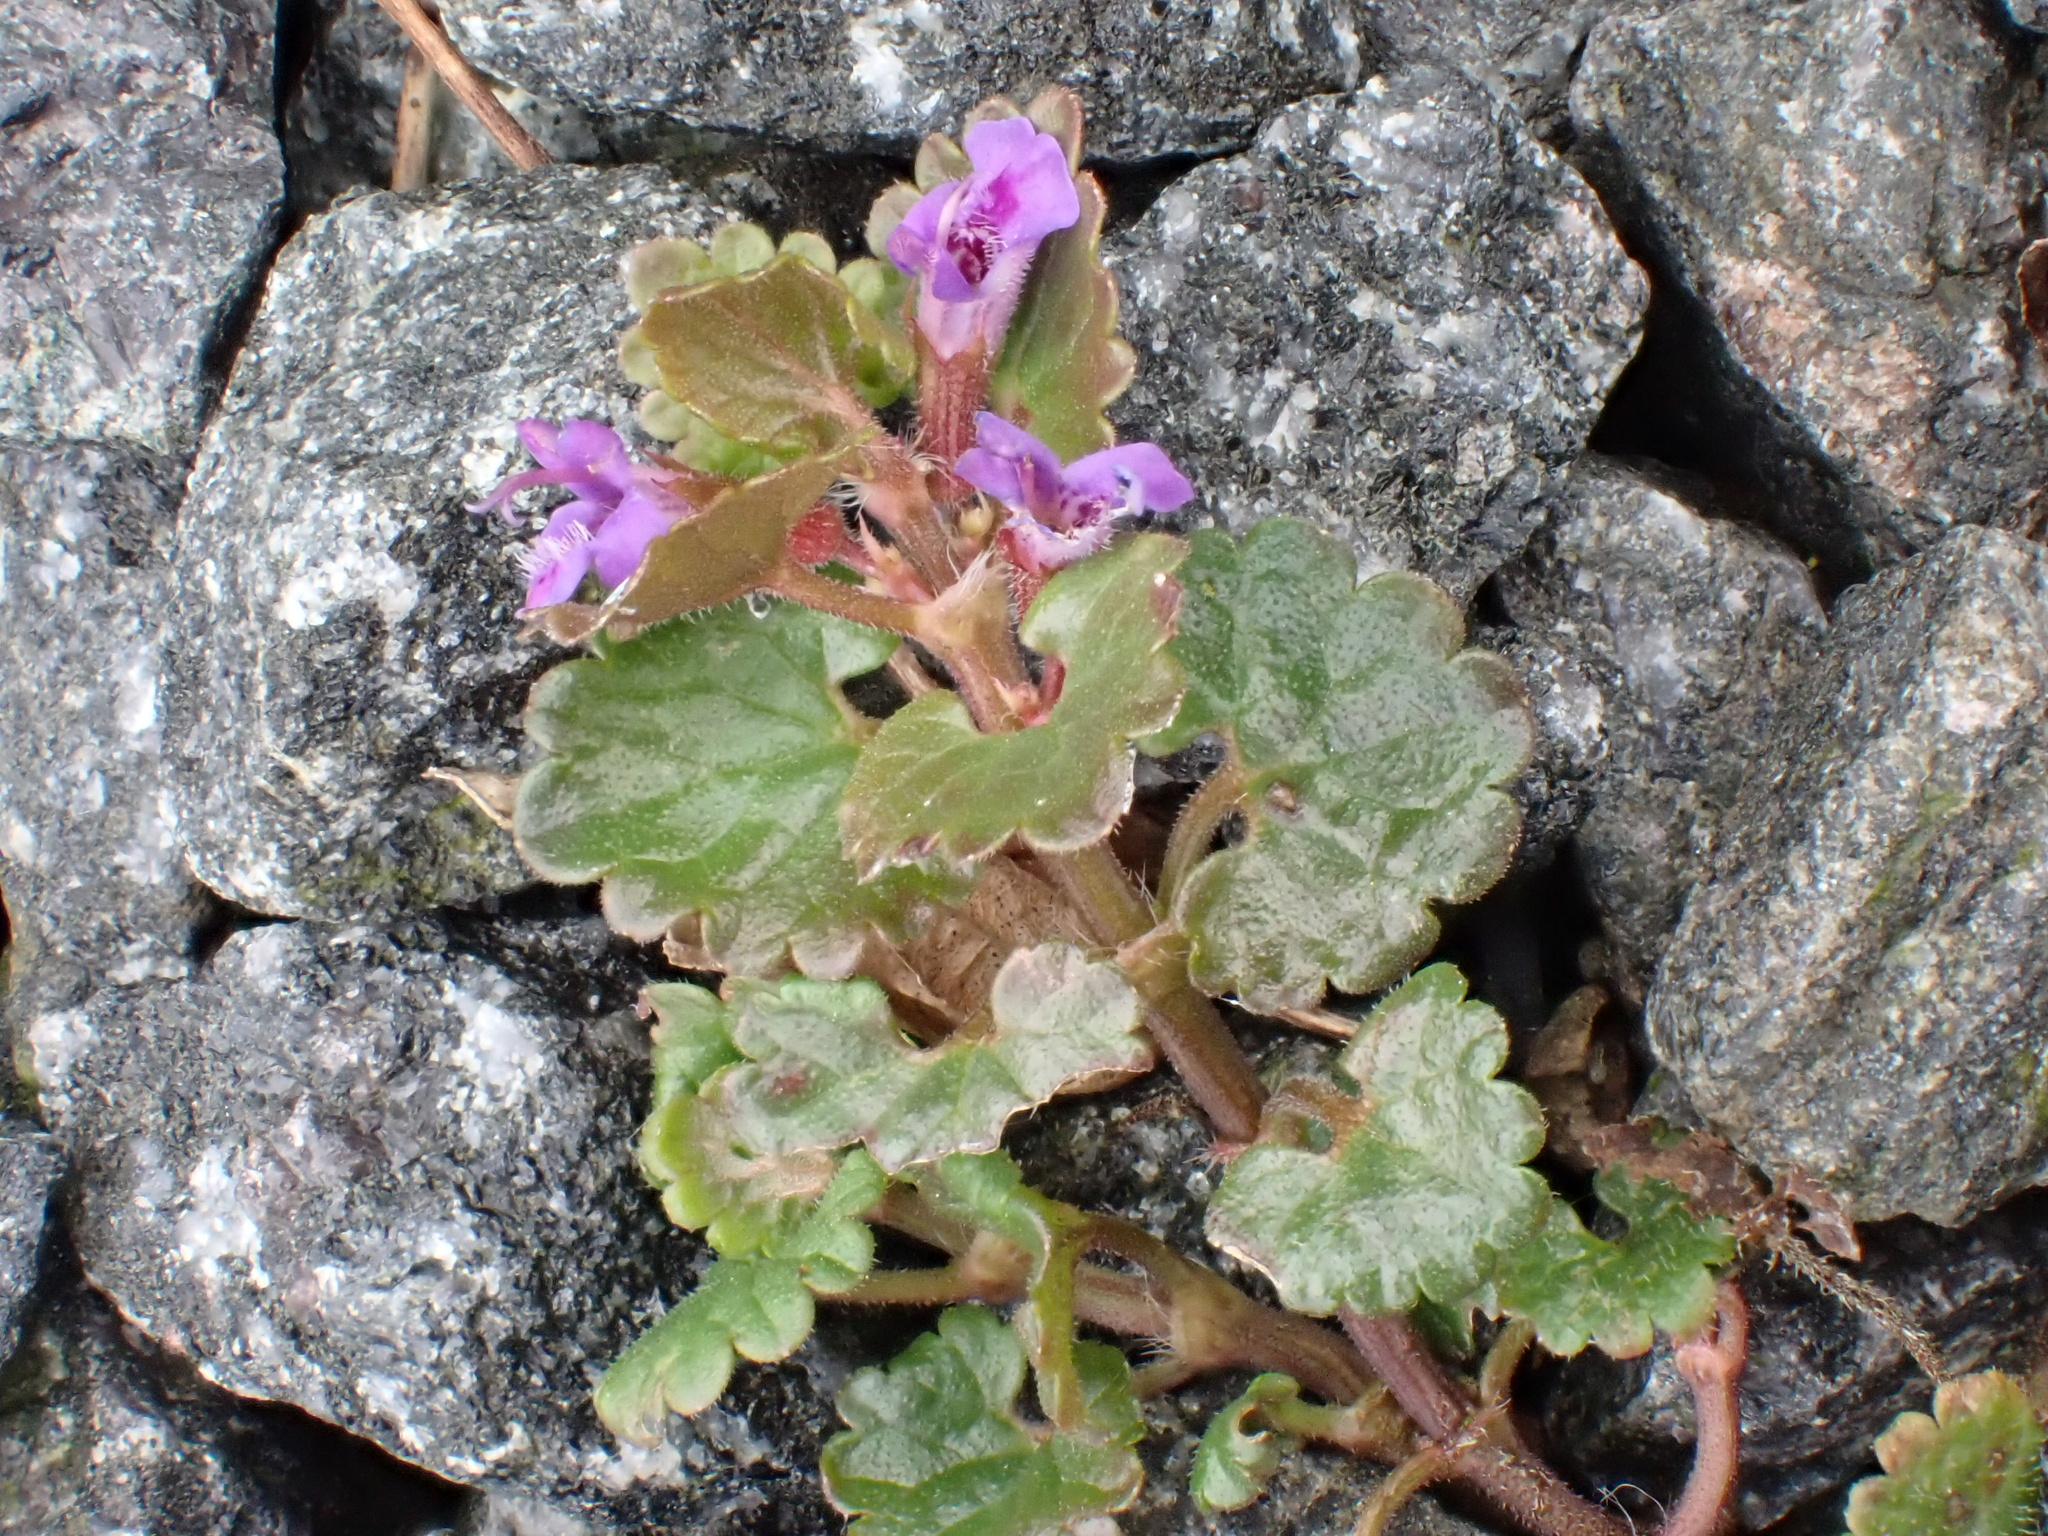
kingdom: Plantae
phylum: Tracheophyta
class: Magnoliopsida
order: Lamiales
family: Lamiaceae
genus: Glechoma
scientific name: Glechoma hederacea
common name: Ground ivy
